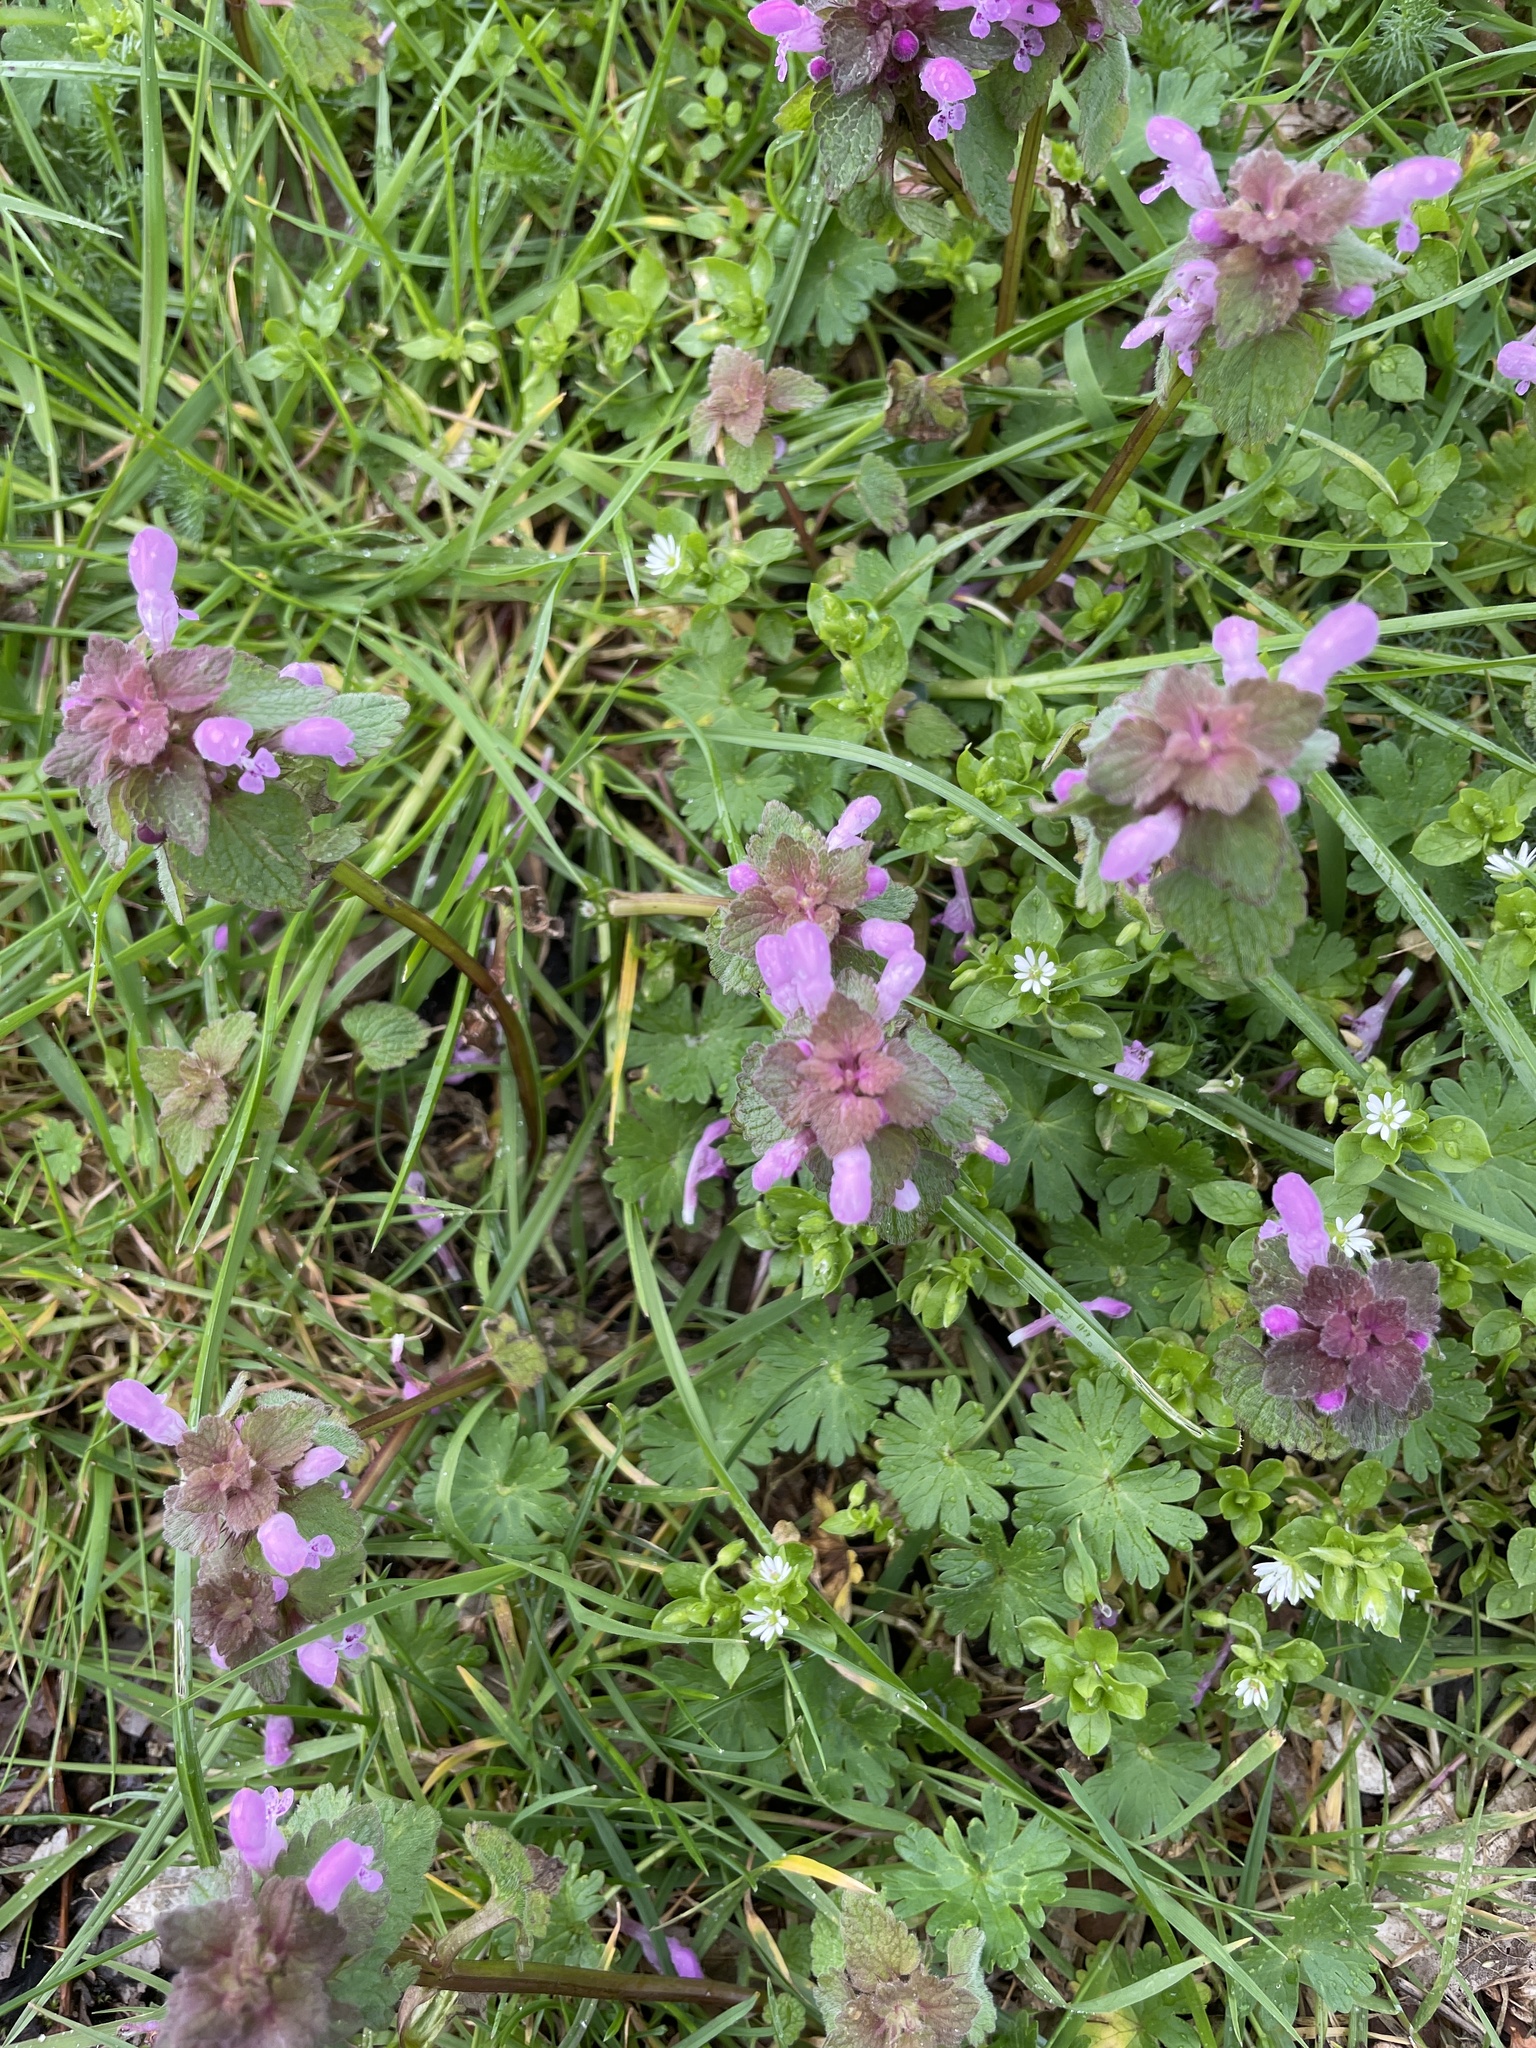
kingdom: Plantae
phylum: Tracheophyta
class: Magnoliopsida
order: Lamiales
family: Lamiaceae
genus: Lamium
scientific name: Lamium purpureum
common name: Red dead-nettle
